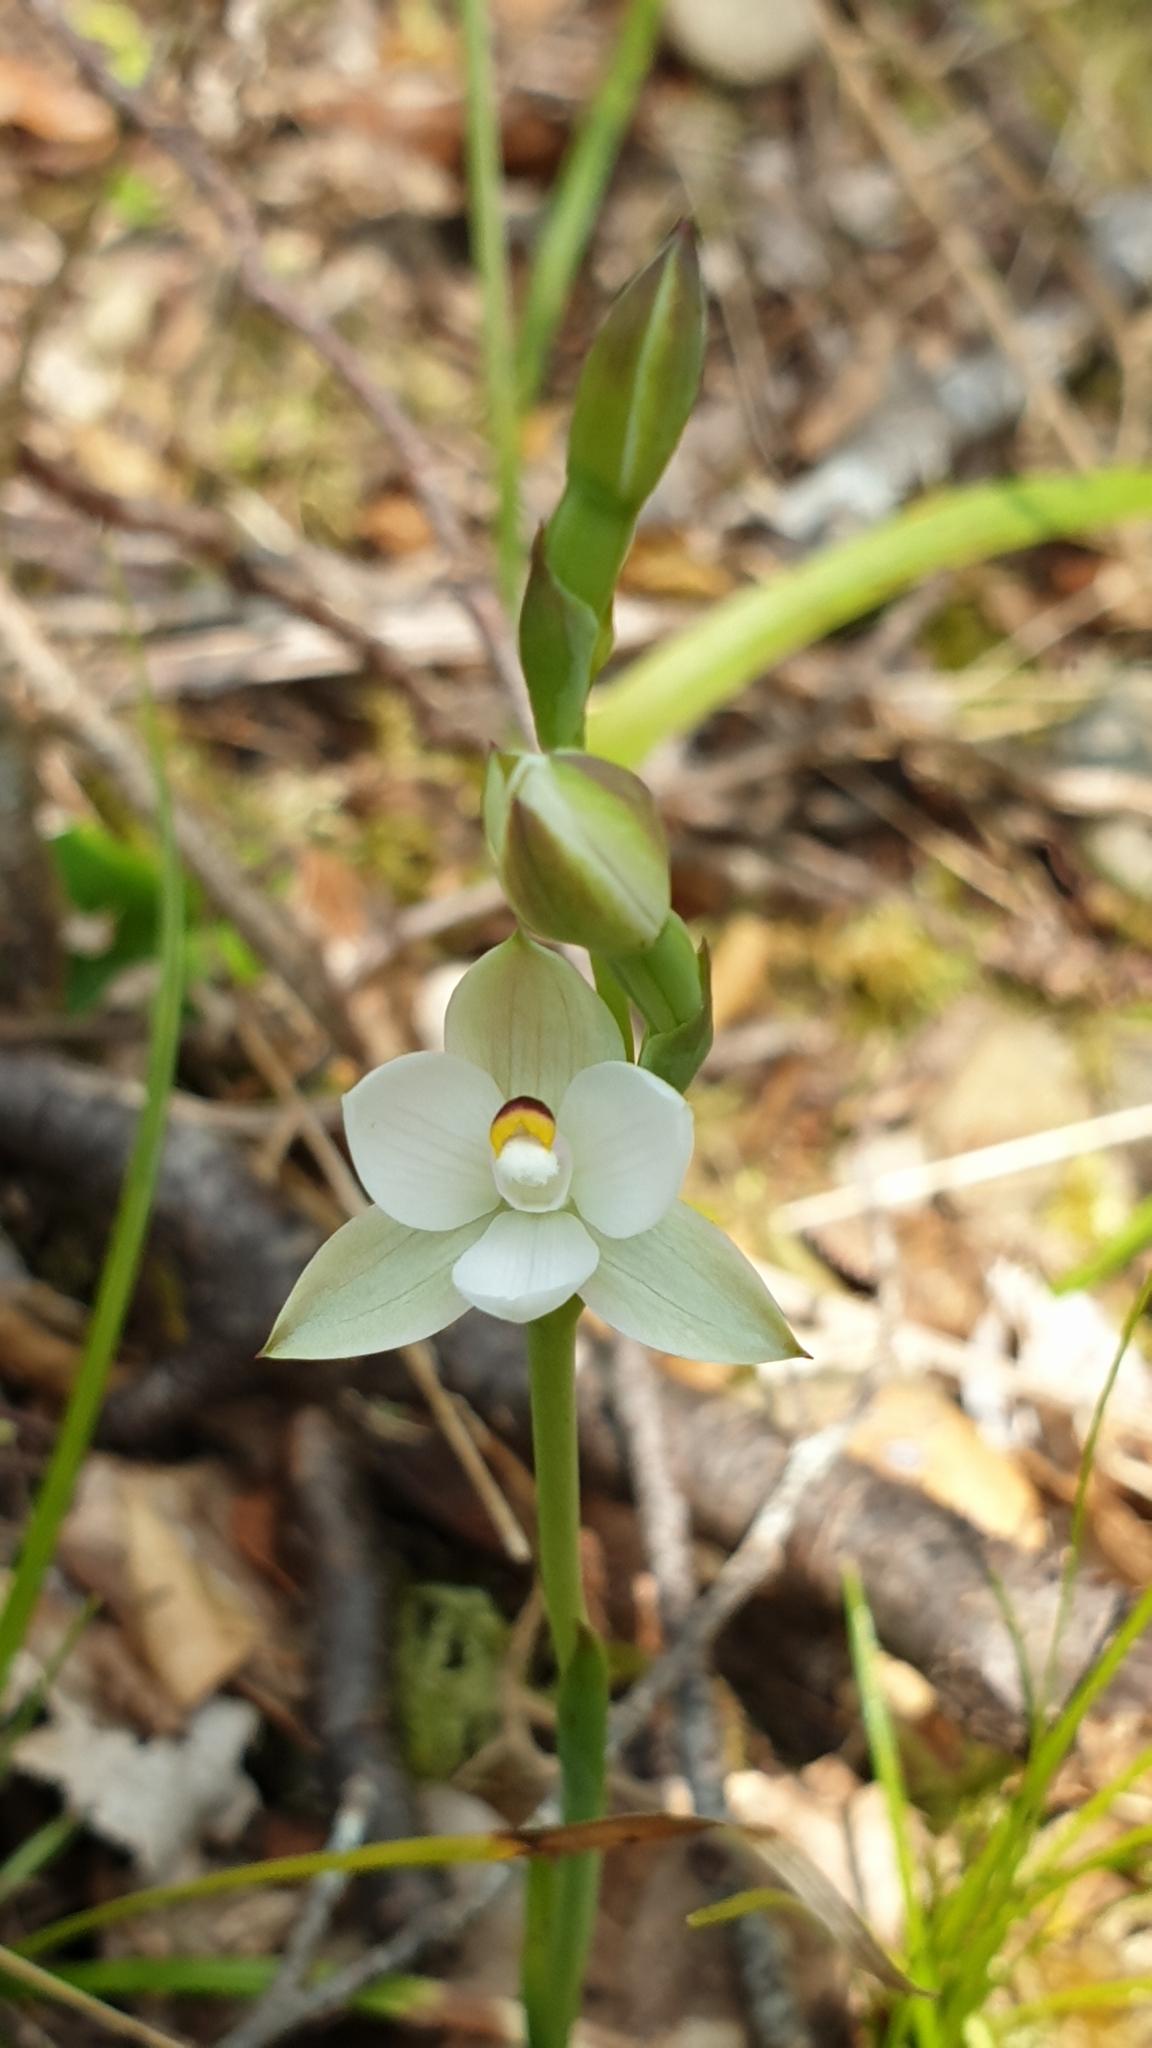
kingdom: Plantae
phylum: Tracheophyta
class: Liliopsida
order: Asparagales
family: Orchidaceae
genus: Thelymitra
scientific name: Thelymitra longifolia
